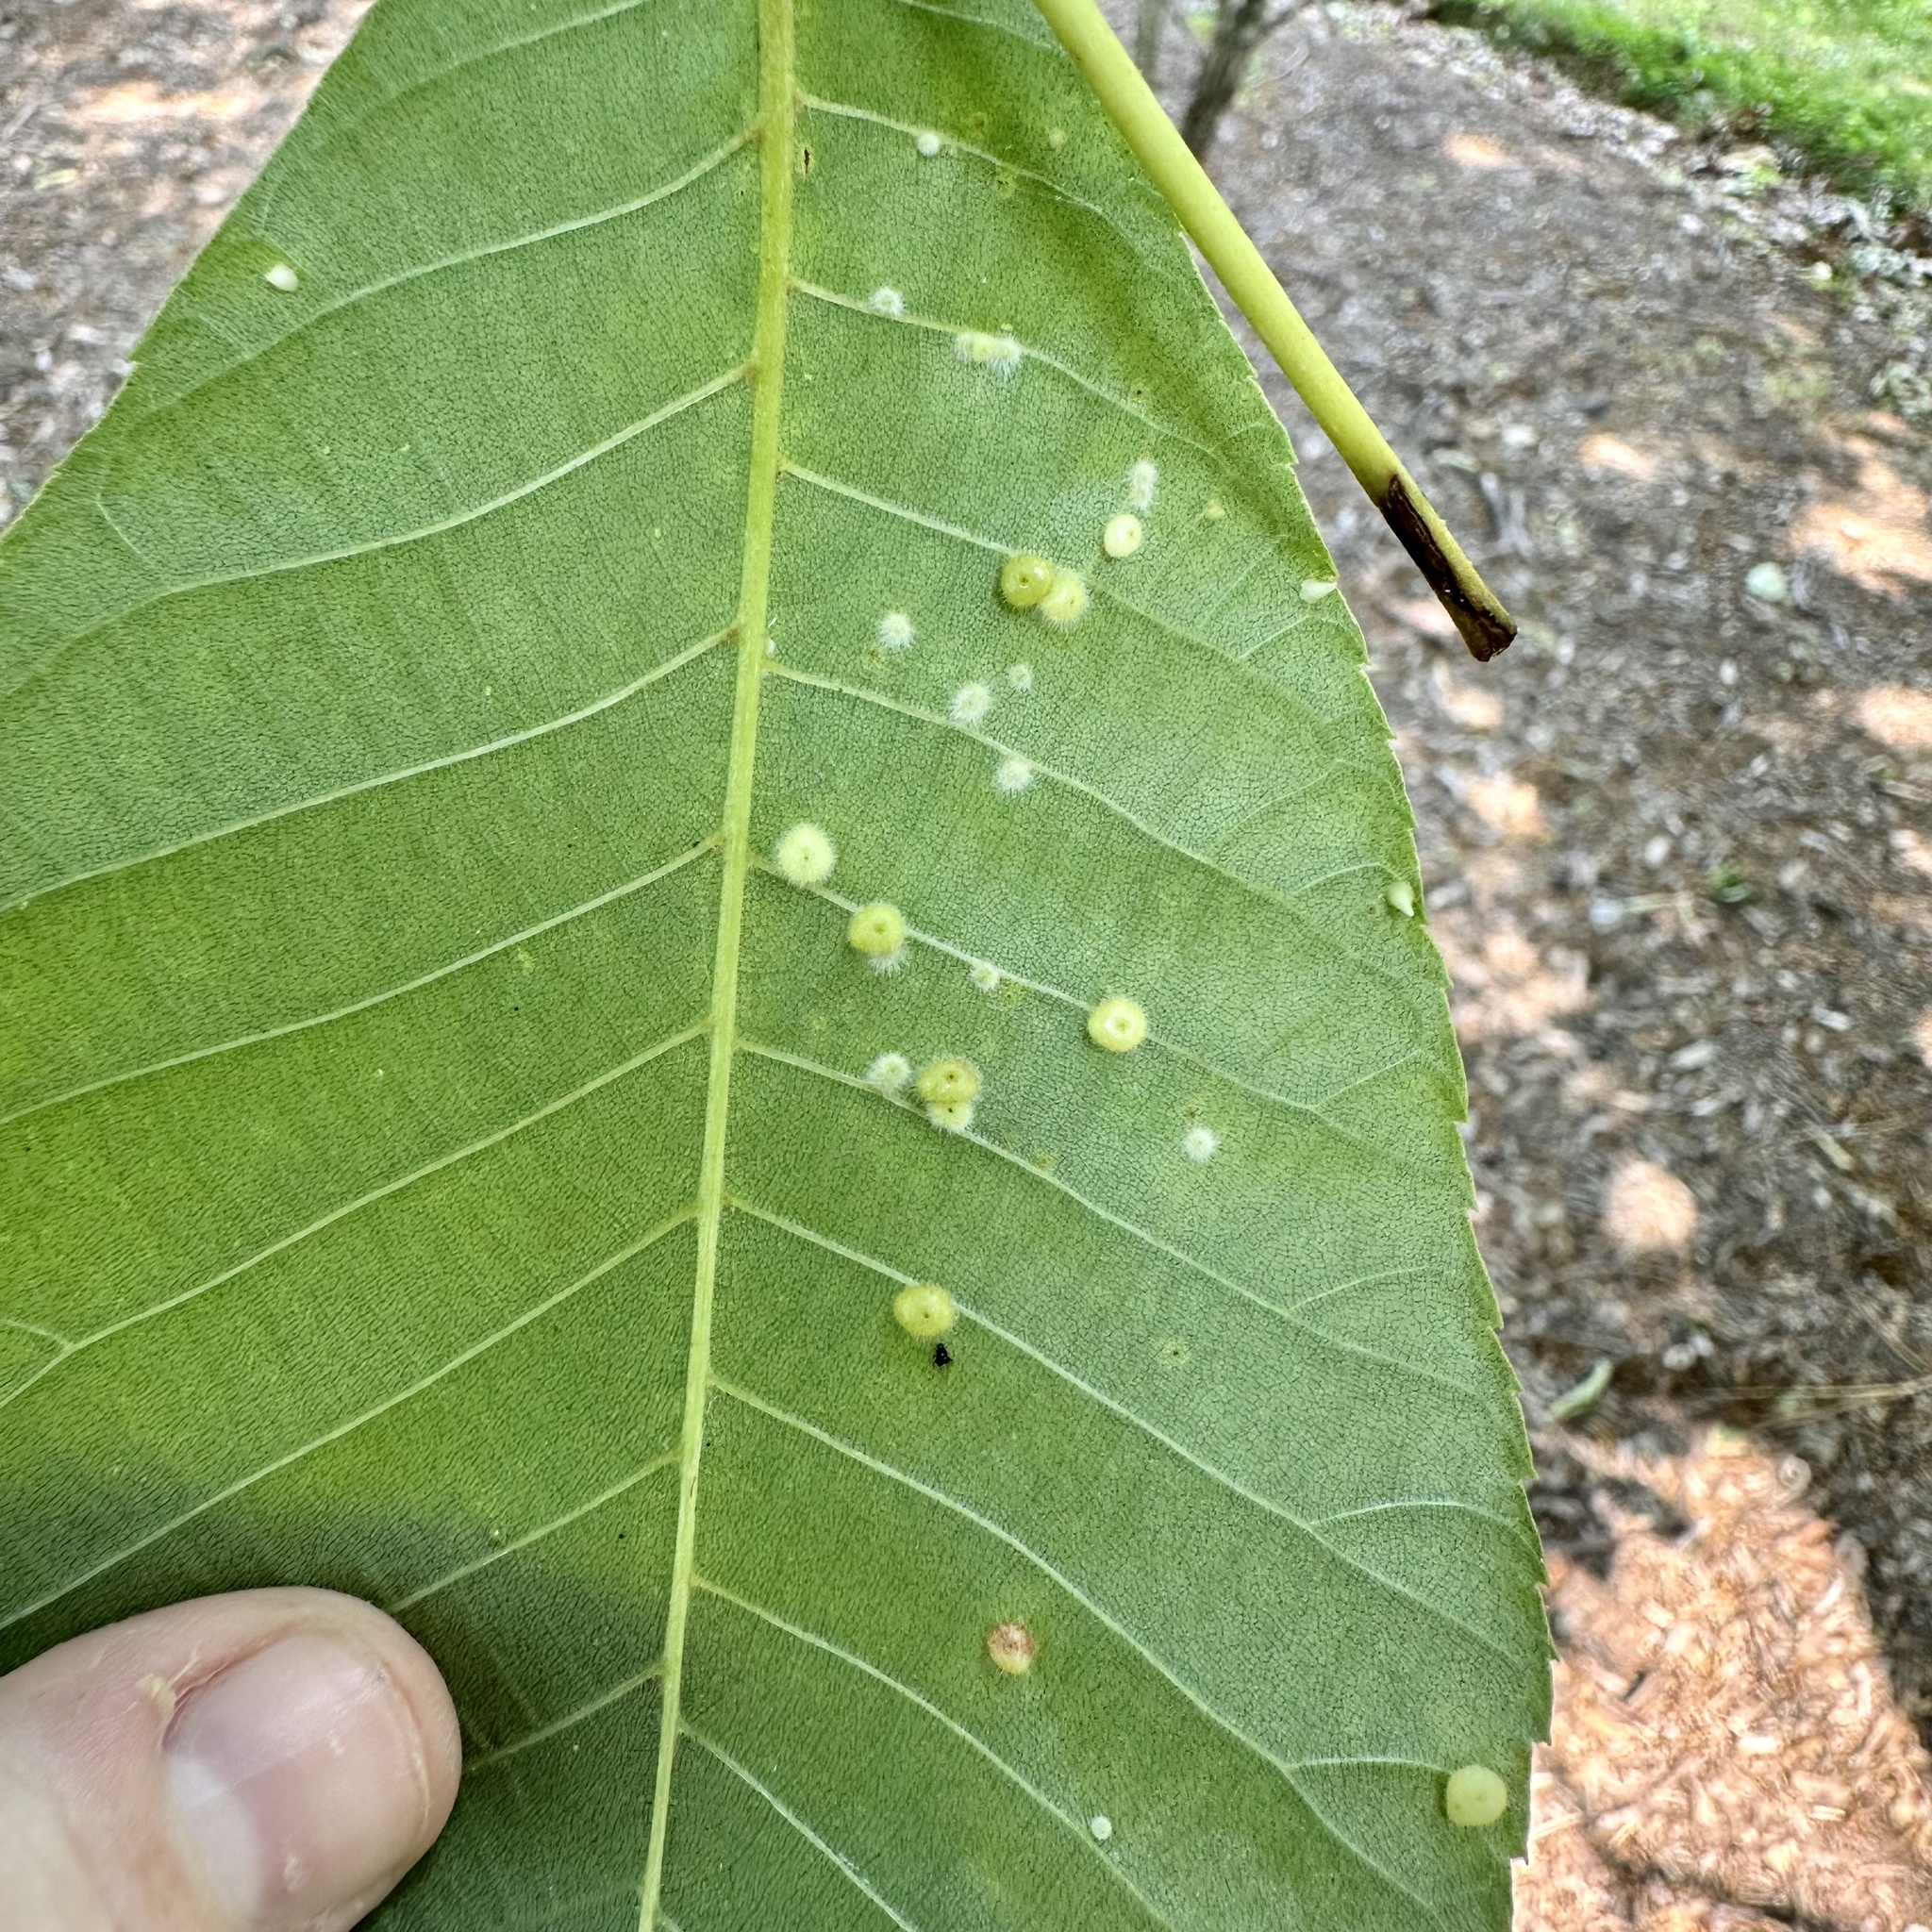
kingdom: Animalia
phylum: Arthropoda
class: Insecta
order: Diptera
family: Cecidomyiidae
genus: Caryomyia
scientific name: Caryomyia thompsoni
